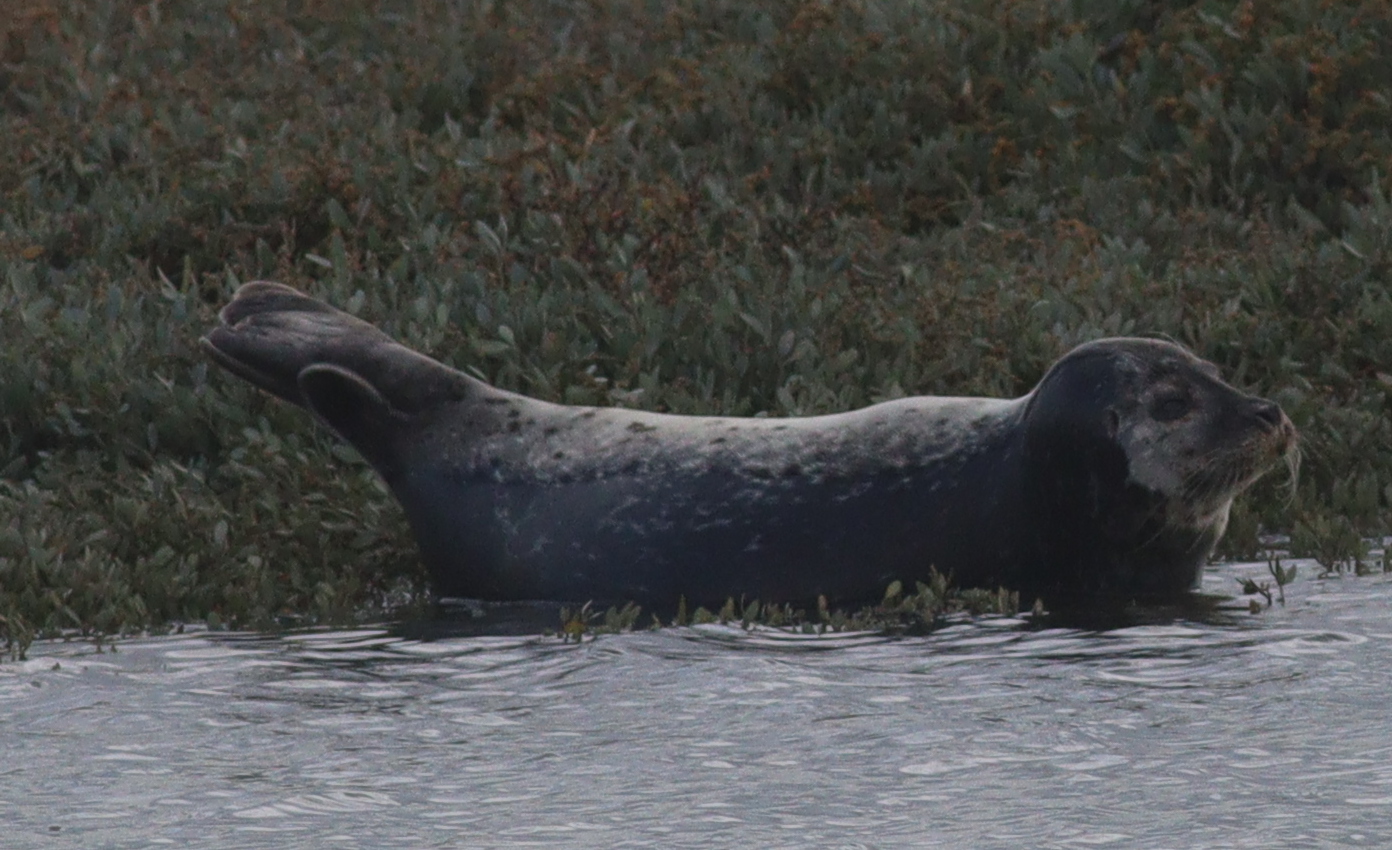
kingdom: Animalia
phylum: Chordata
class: Mammalia
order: Carnivora
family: Phocidae
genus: Phoca
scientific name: Phoca vitulina
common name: Harbor seal
